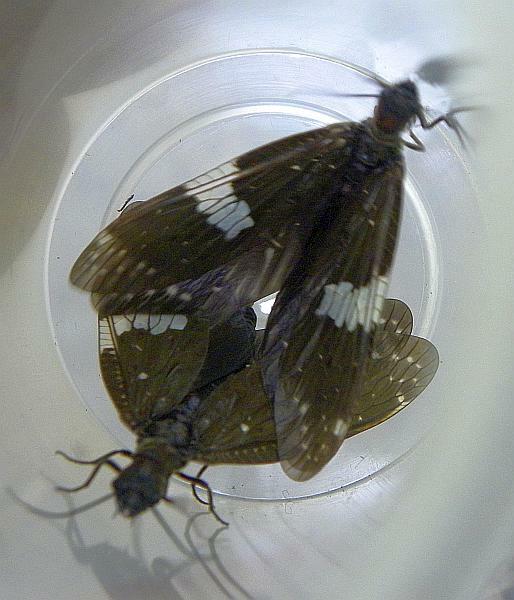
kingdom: Animalia
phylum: Arthropoda
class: Insecta
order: Megaloptera
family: Corydalidae
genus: Nigronia
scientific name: Nigronia serricornis
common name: Serrate dark fishfly
